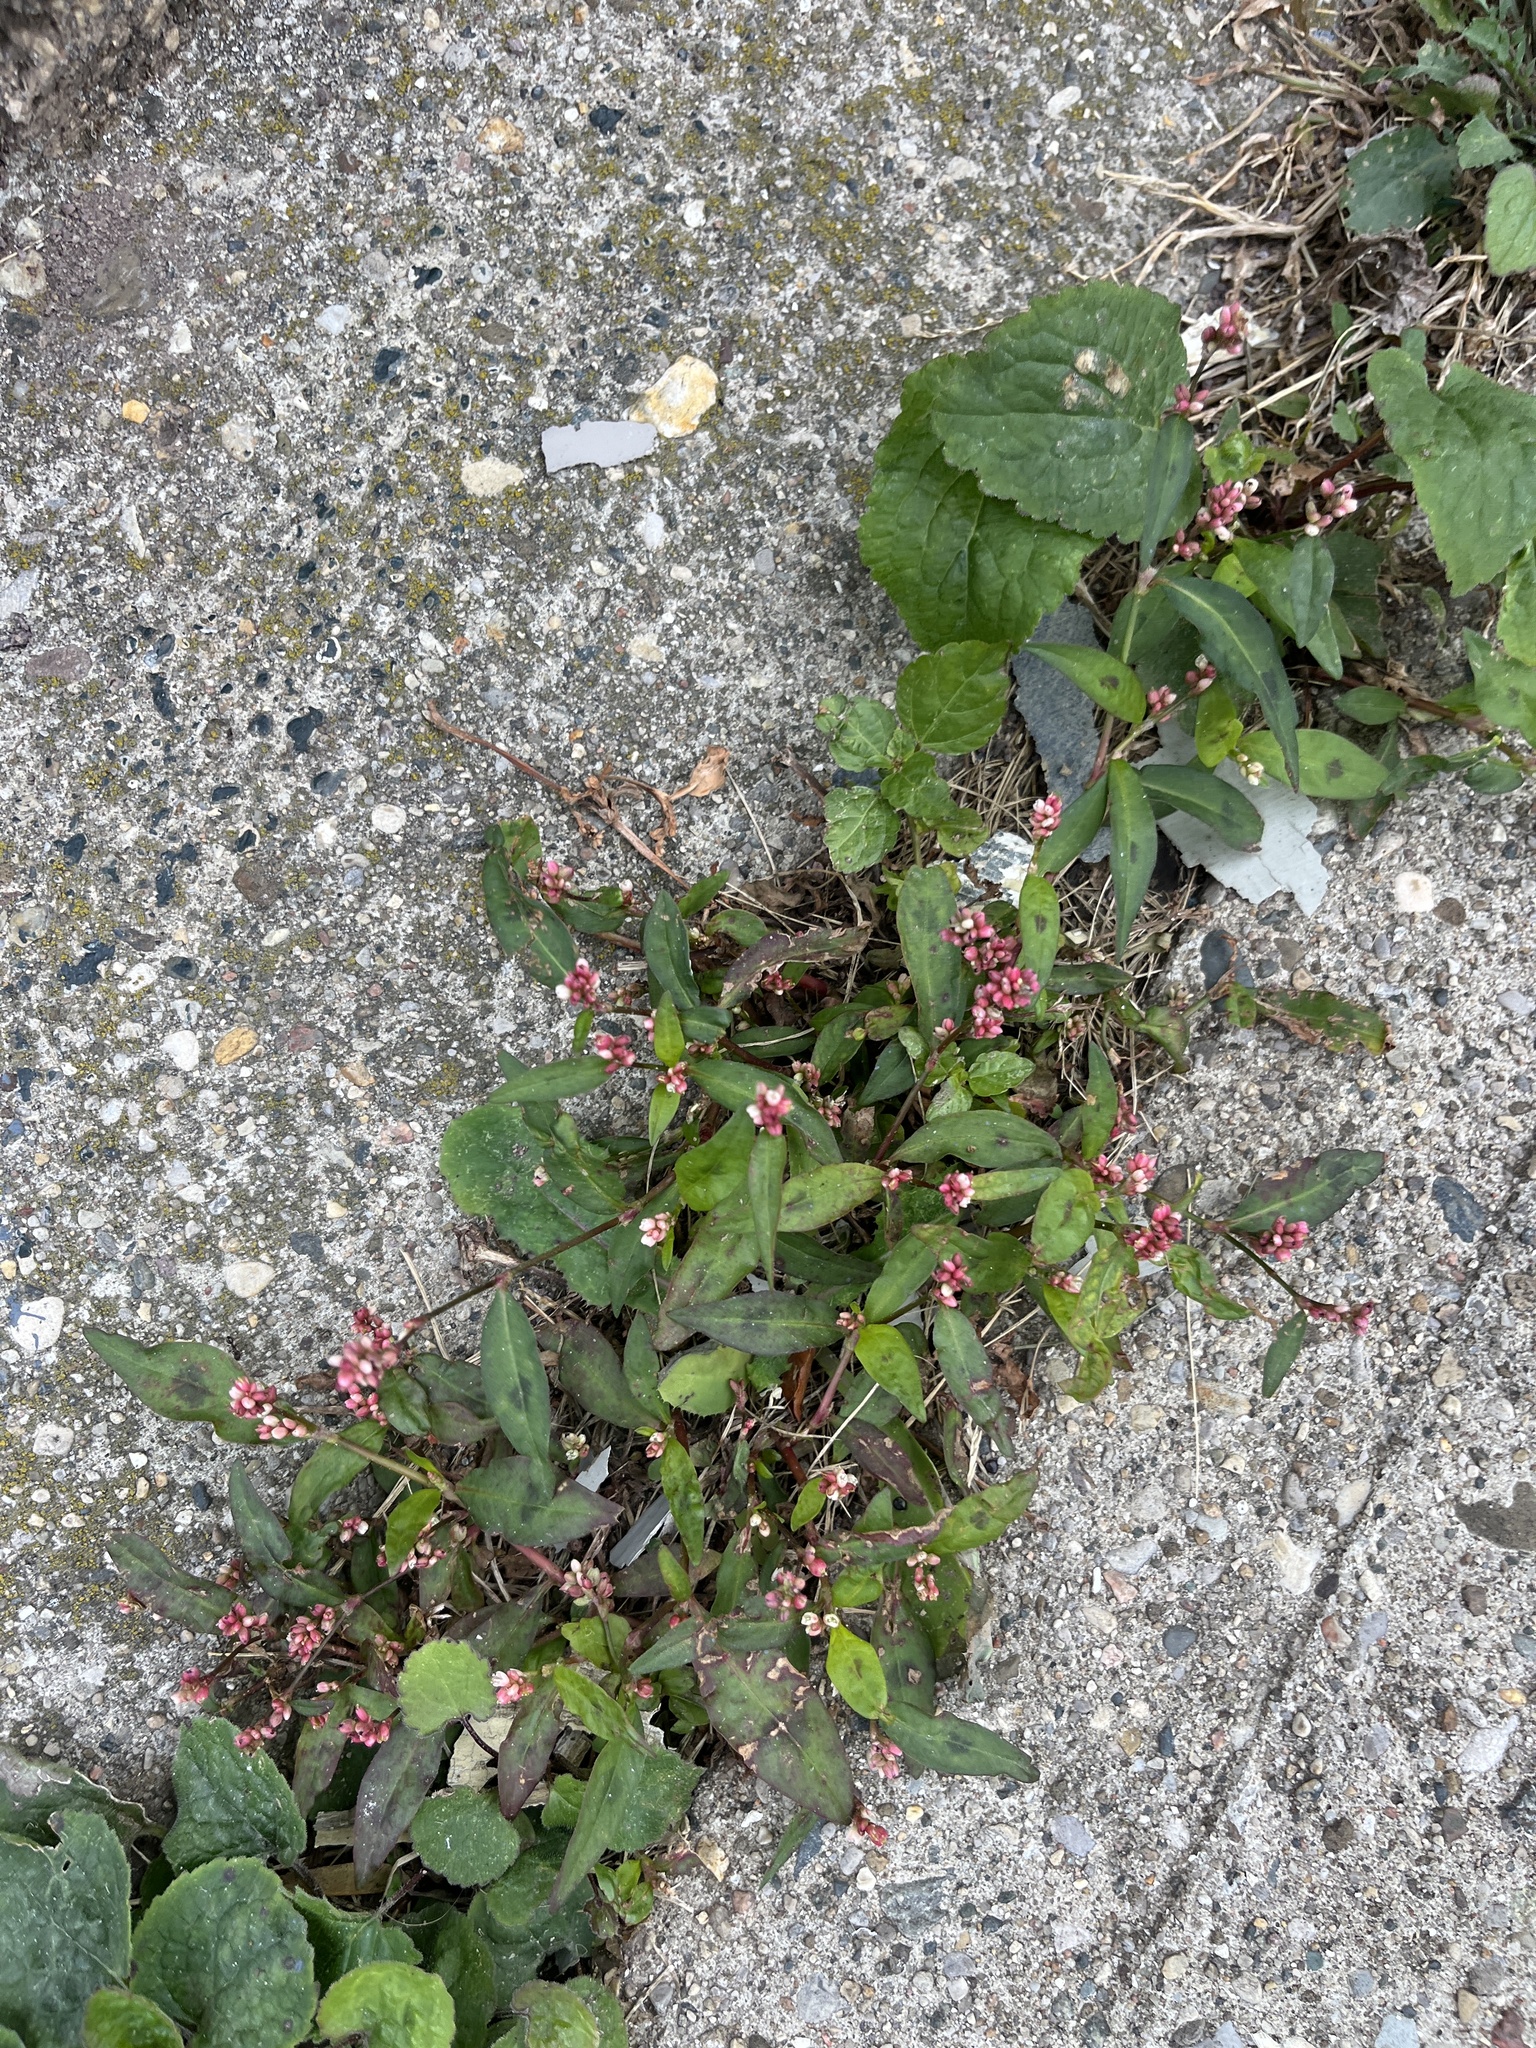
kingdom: Plantae
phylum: Tracheophyta
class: Magnoliopsida
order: Caryophyllales
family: Polygonaceae
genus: Persicaria
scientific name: Persicaria maculosa
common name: Redshank
